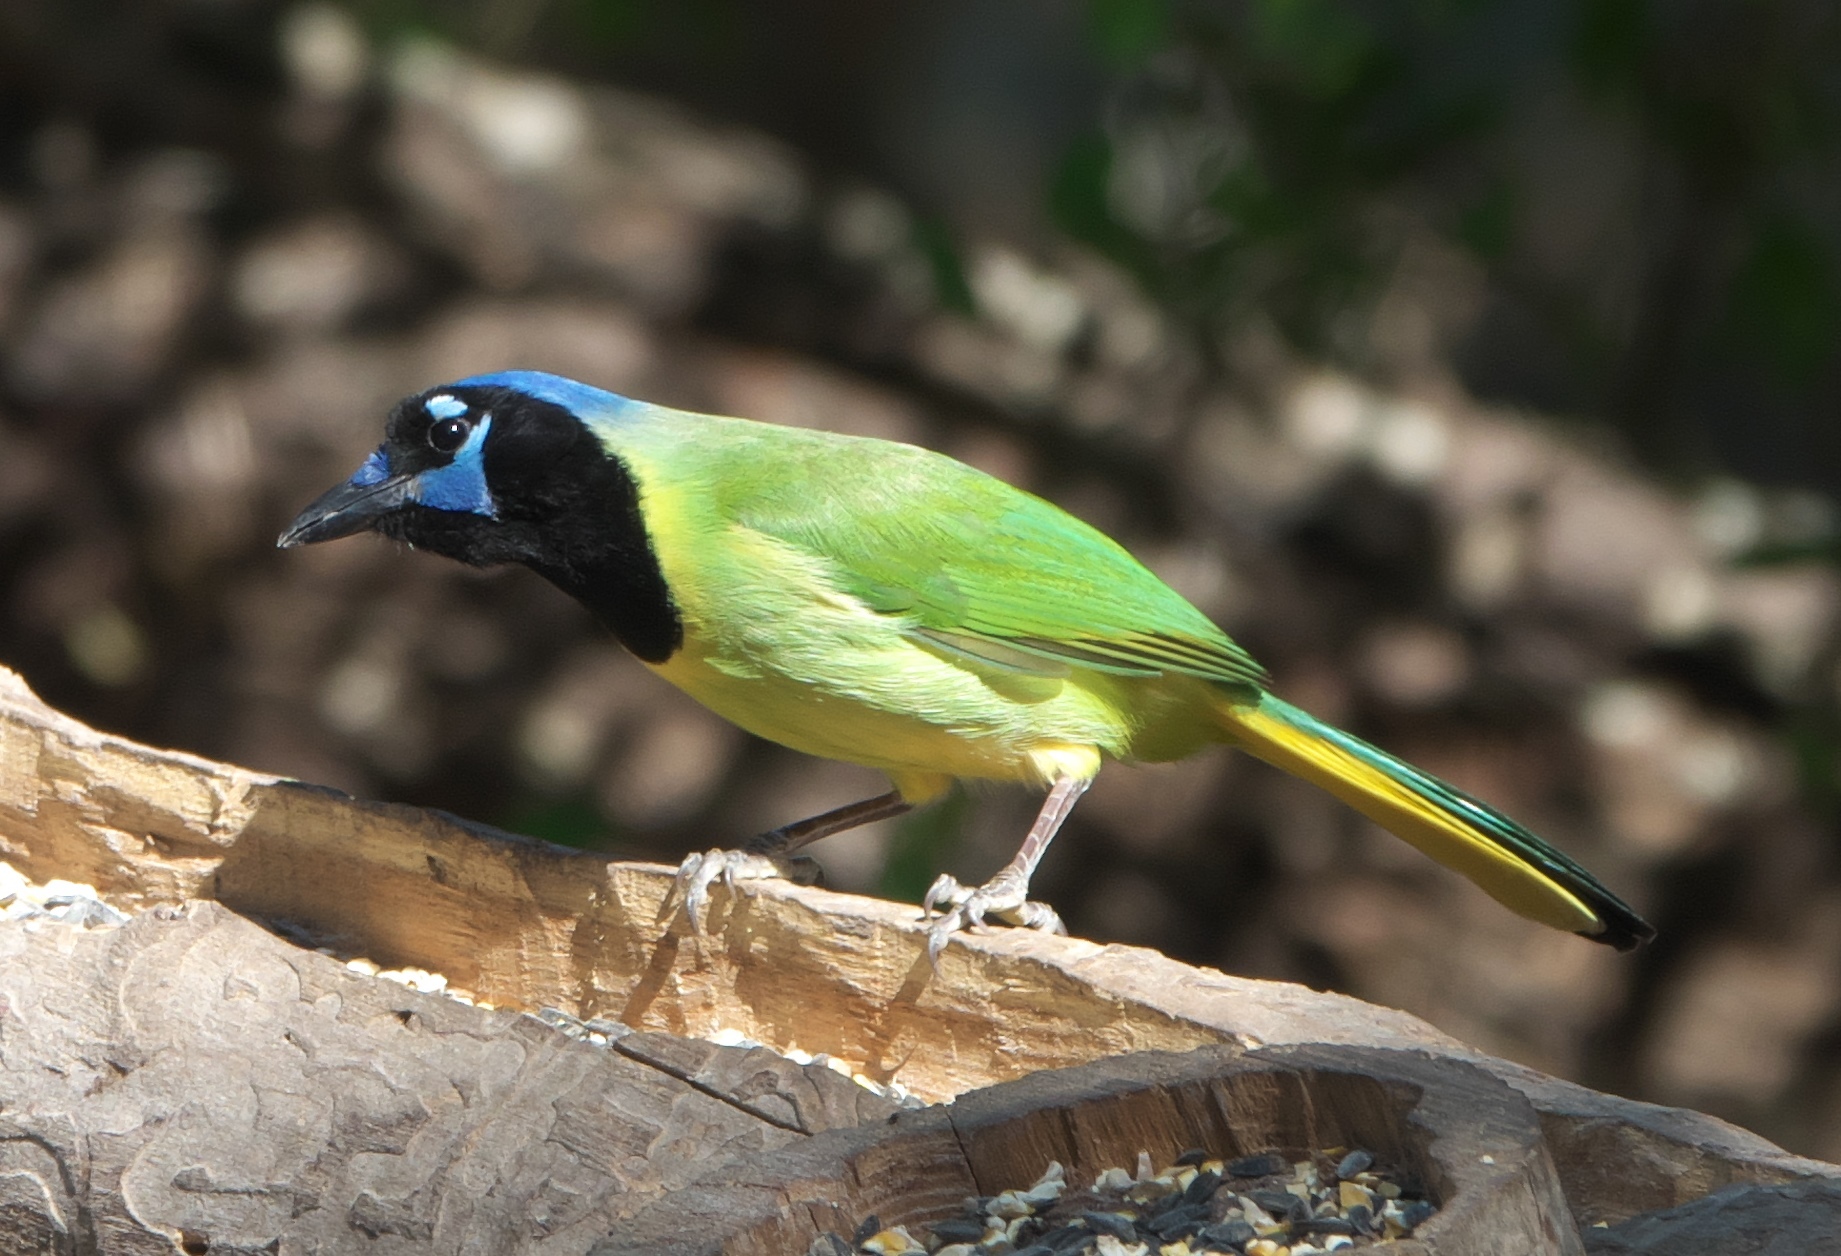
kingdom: Animalia
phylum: Chordata
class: Aves
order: Passeriformes
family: Corvidae
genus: Cyanocorax
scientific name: Cyanocorax yncas
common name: Green jay
